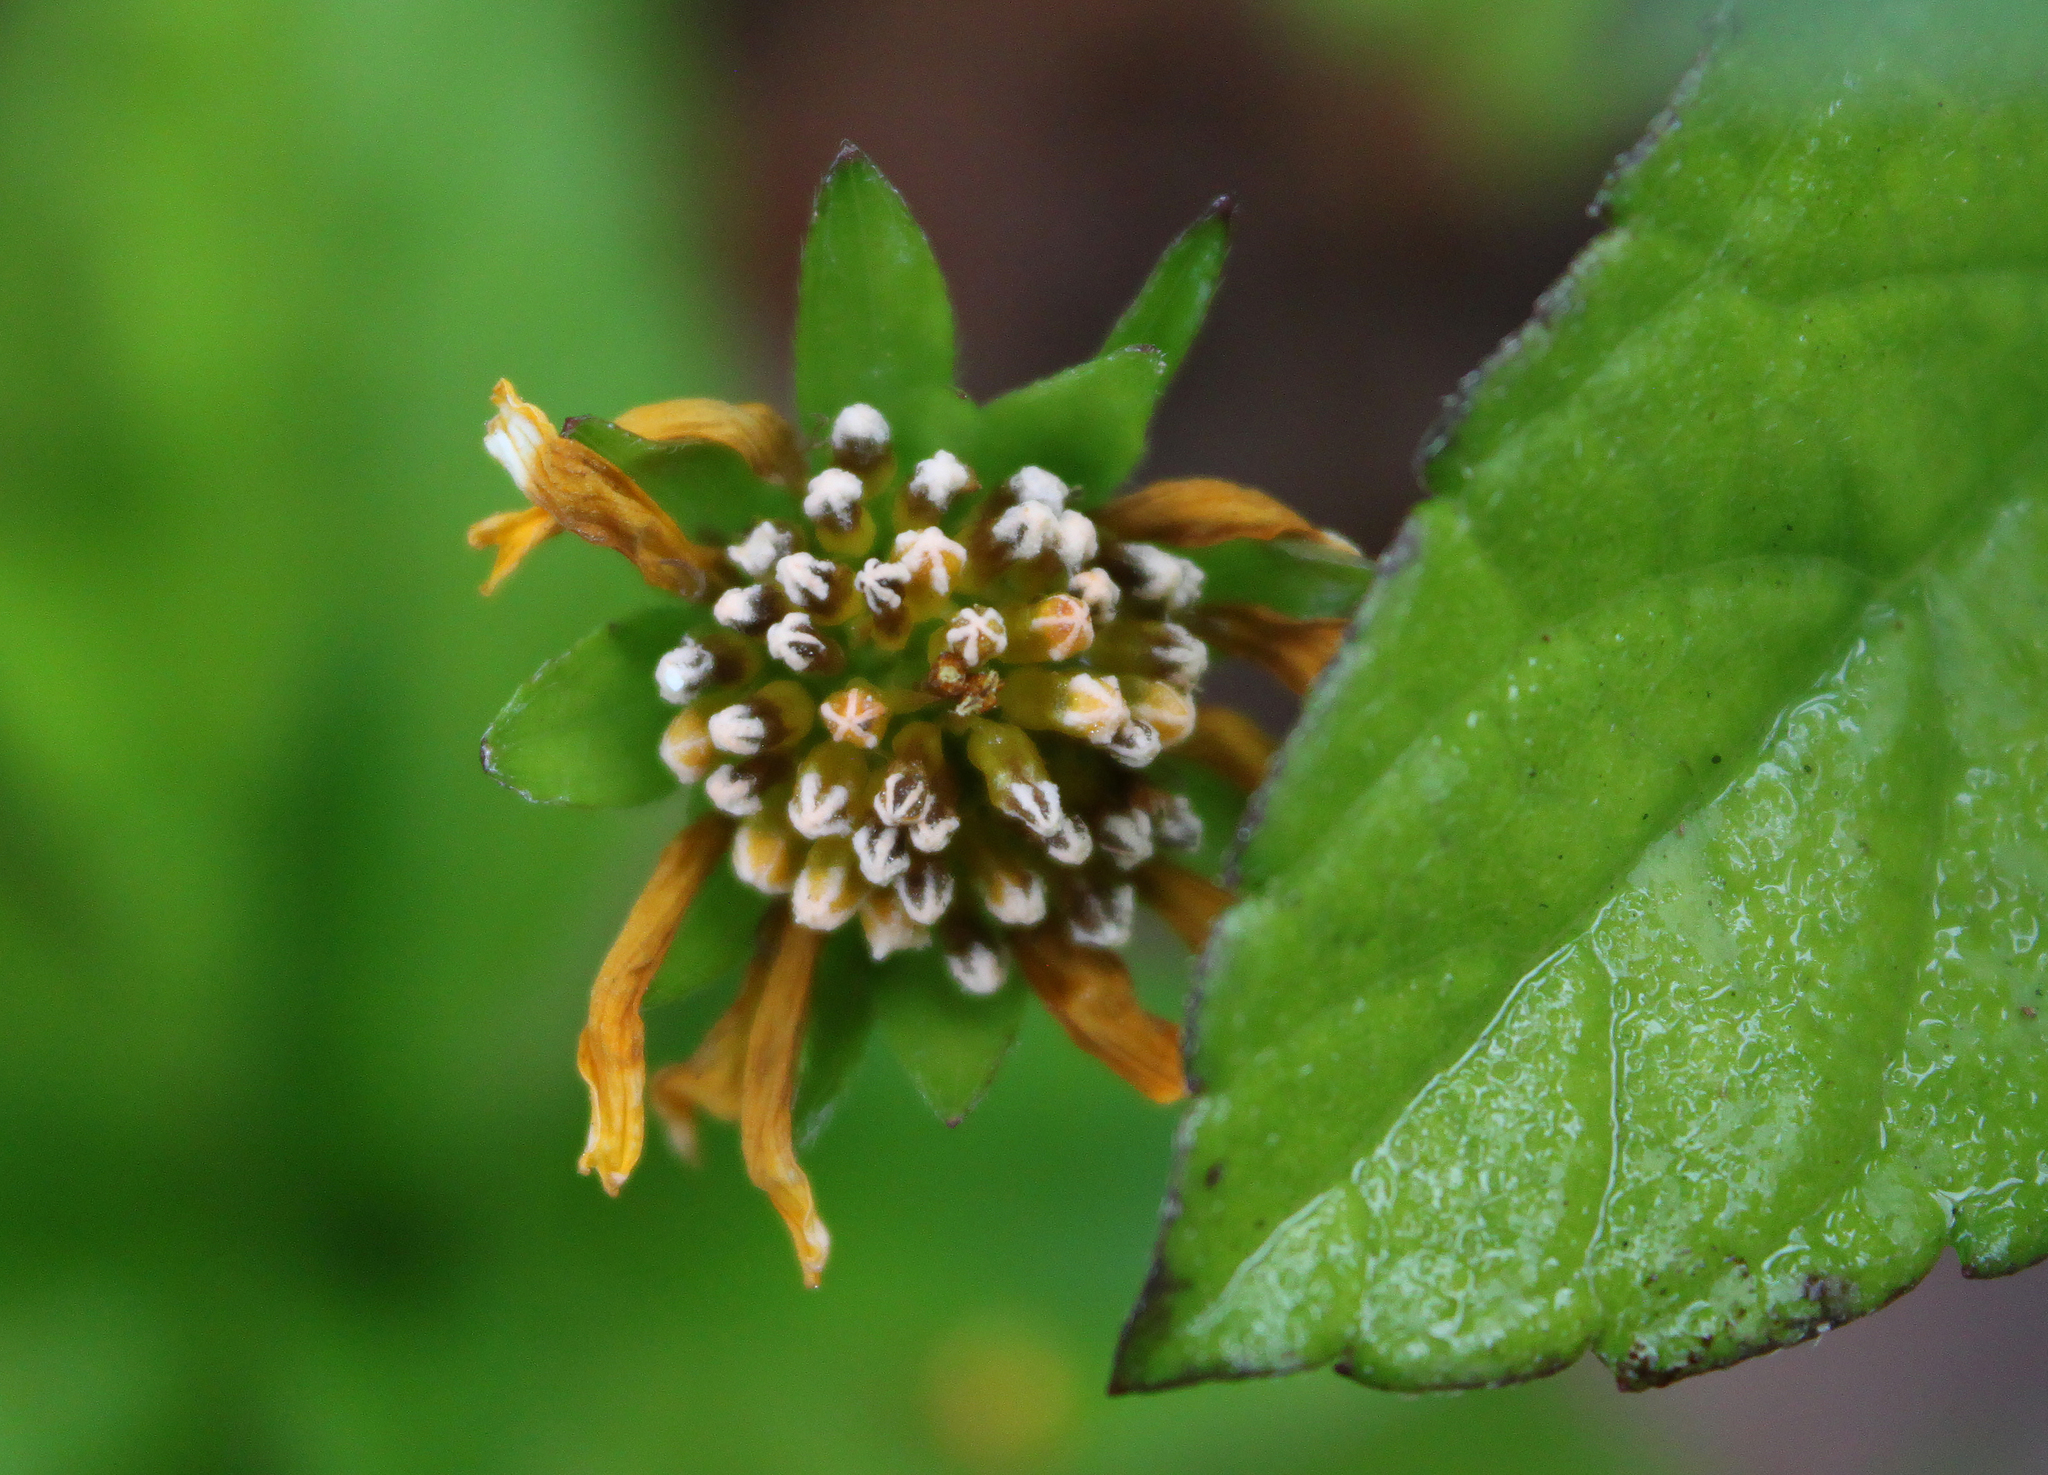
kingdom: Plantae
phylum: Tracheophyta
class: Magnoliopsida
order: Asterales
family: Asteraceae
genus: Sphagneticola
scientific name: Sphagneticola trilobata
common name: Bay biscayne creeping-oxeye
